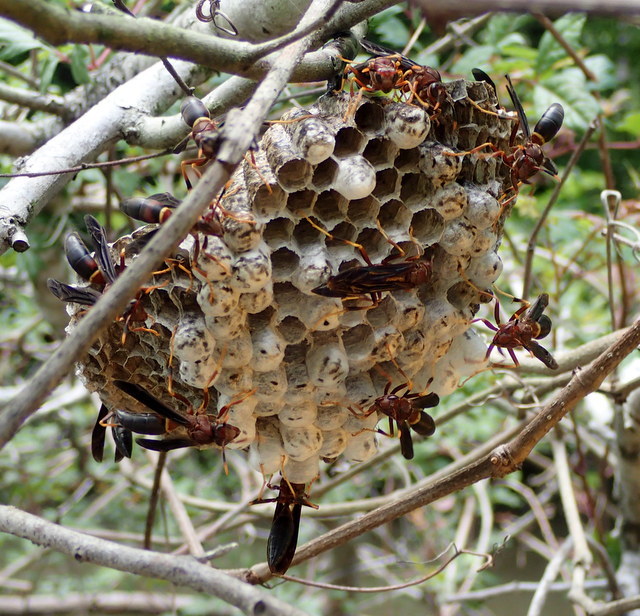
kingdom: Animalia
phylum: Arthropoda
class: Insecta
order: Hymenoptera
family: Eumenidae
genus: Polistes
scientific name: Polistes annularis
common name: Ringed paper wasp
